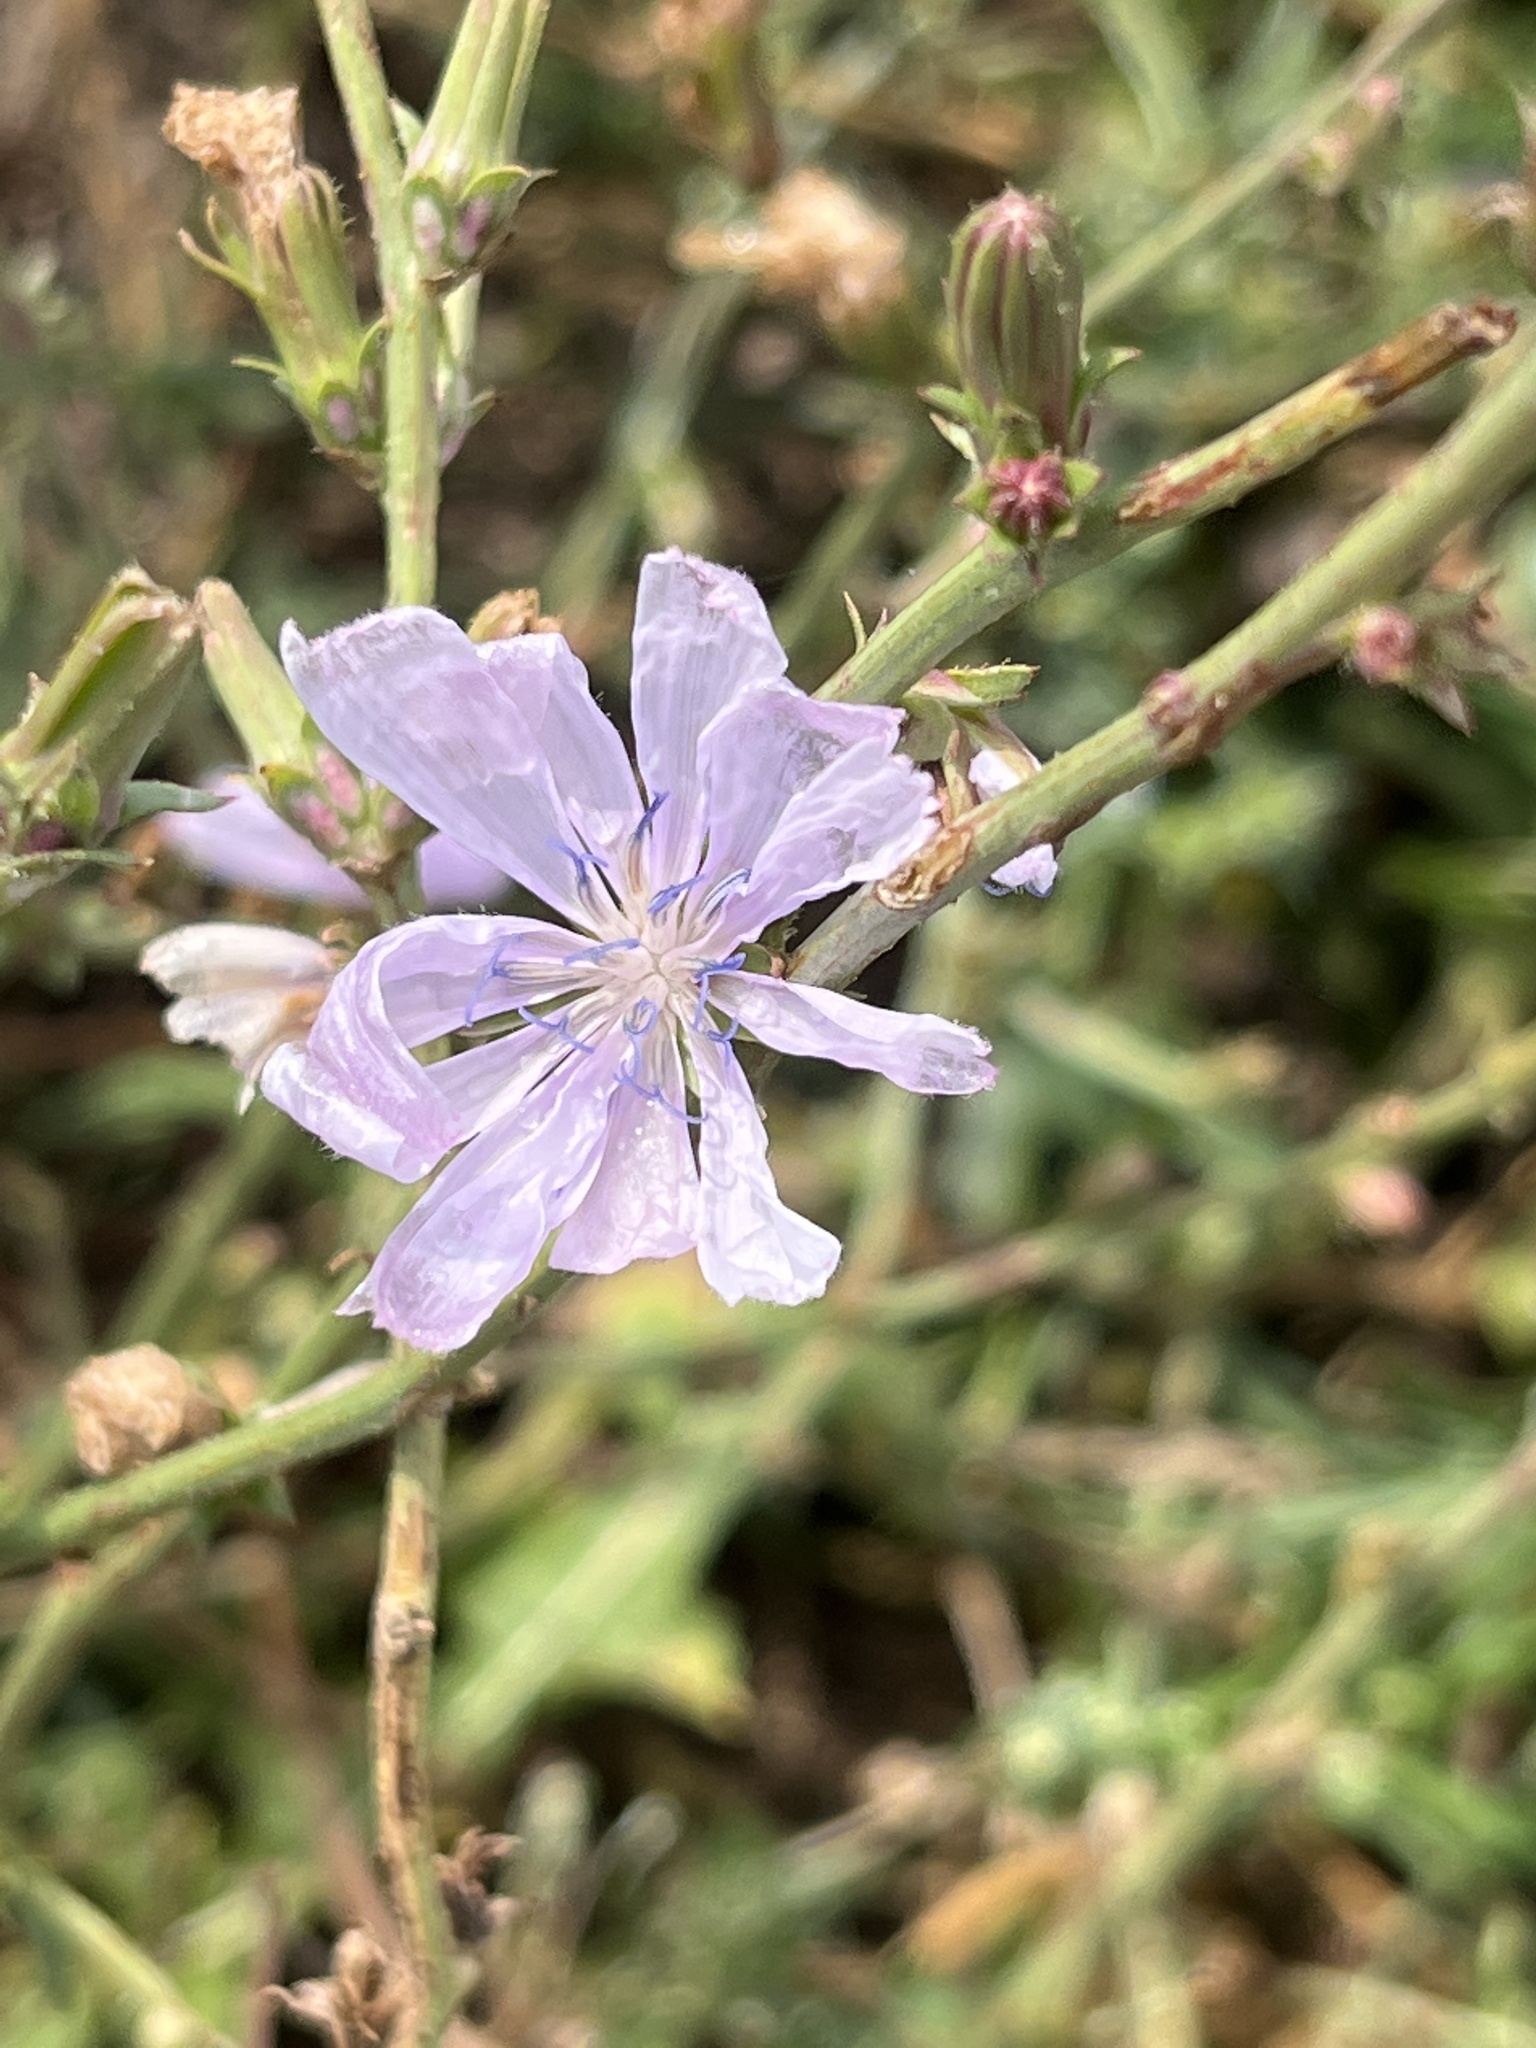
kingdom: Plantae
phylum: Tracheophyta
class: Magnoliopsida
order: Asterales
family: Asteraceae
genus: Cichorium
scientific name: Cichorium intybus
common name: Chicory
